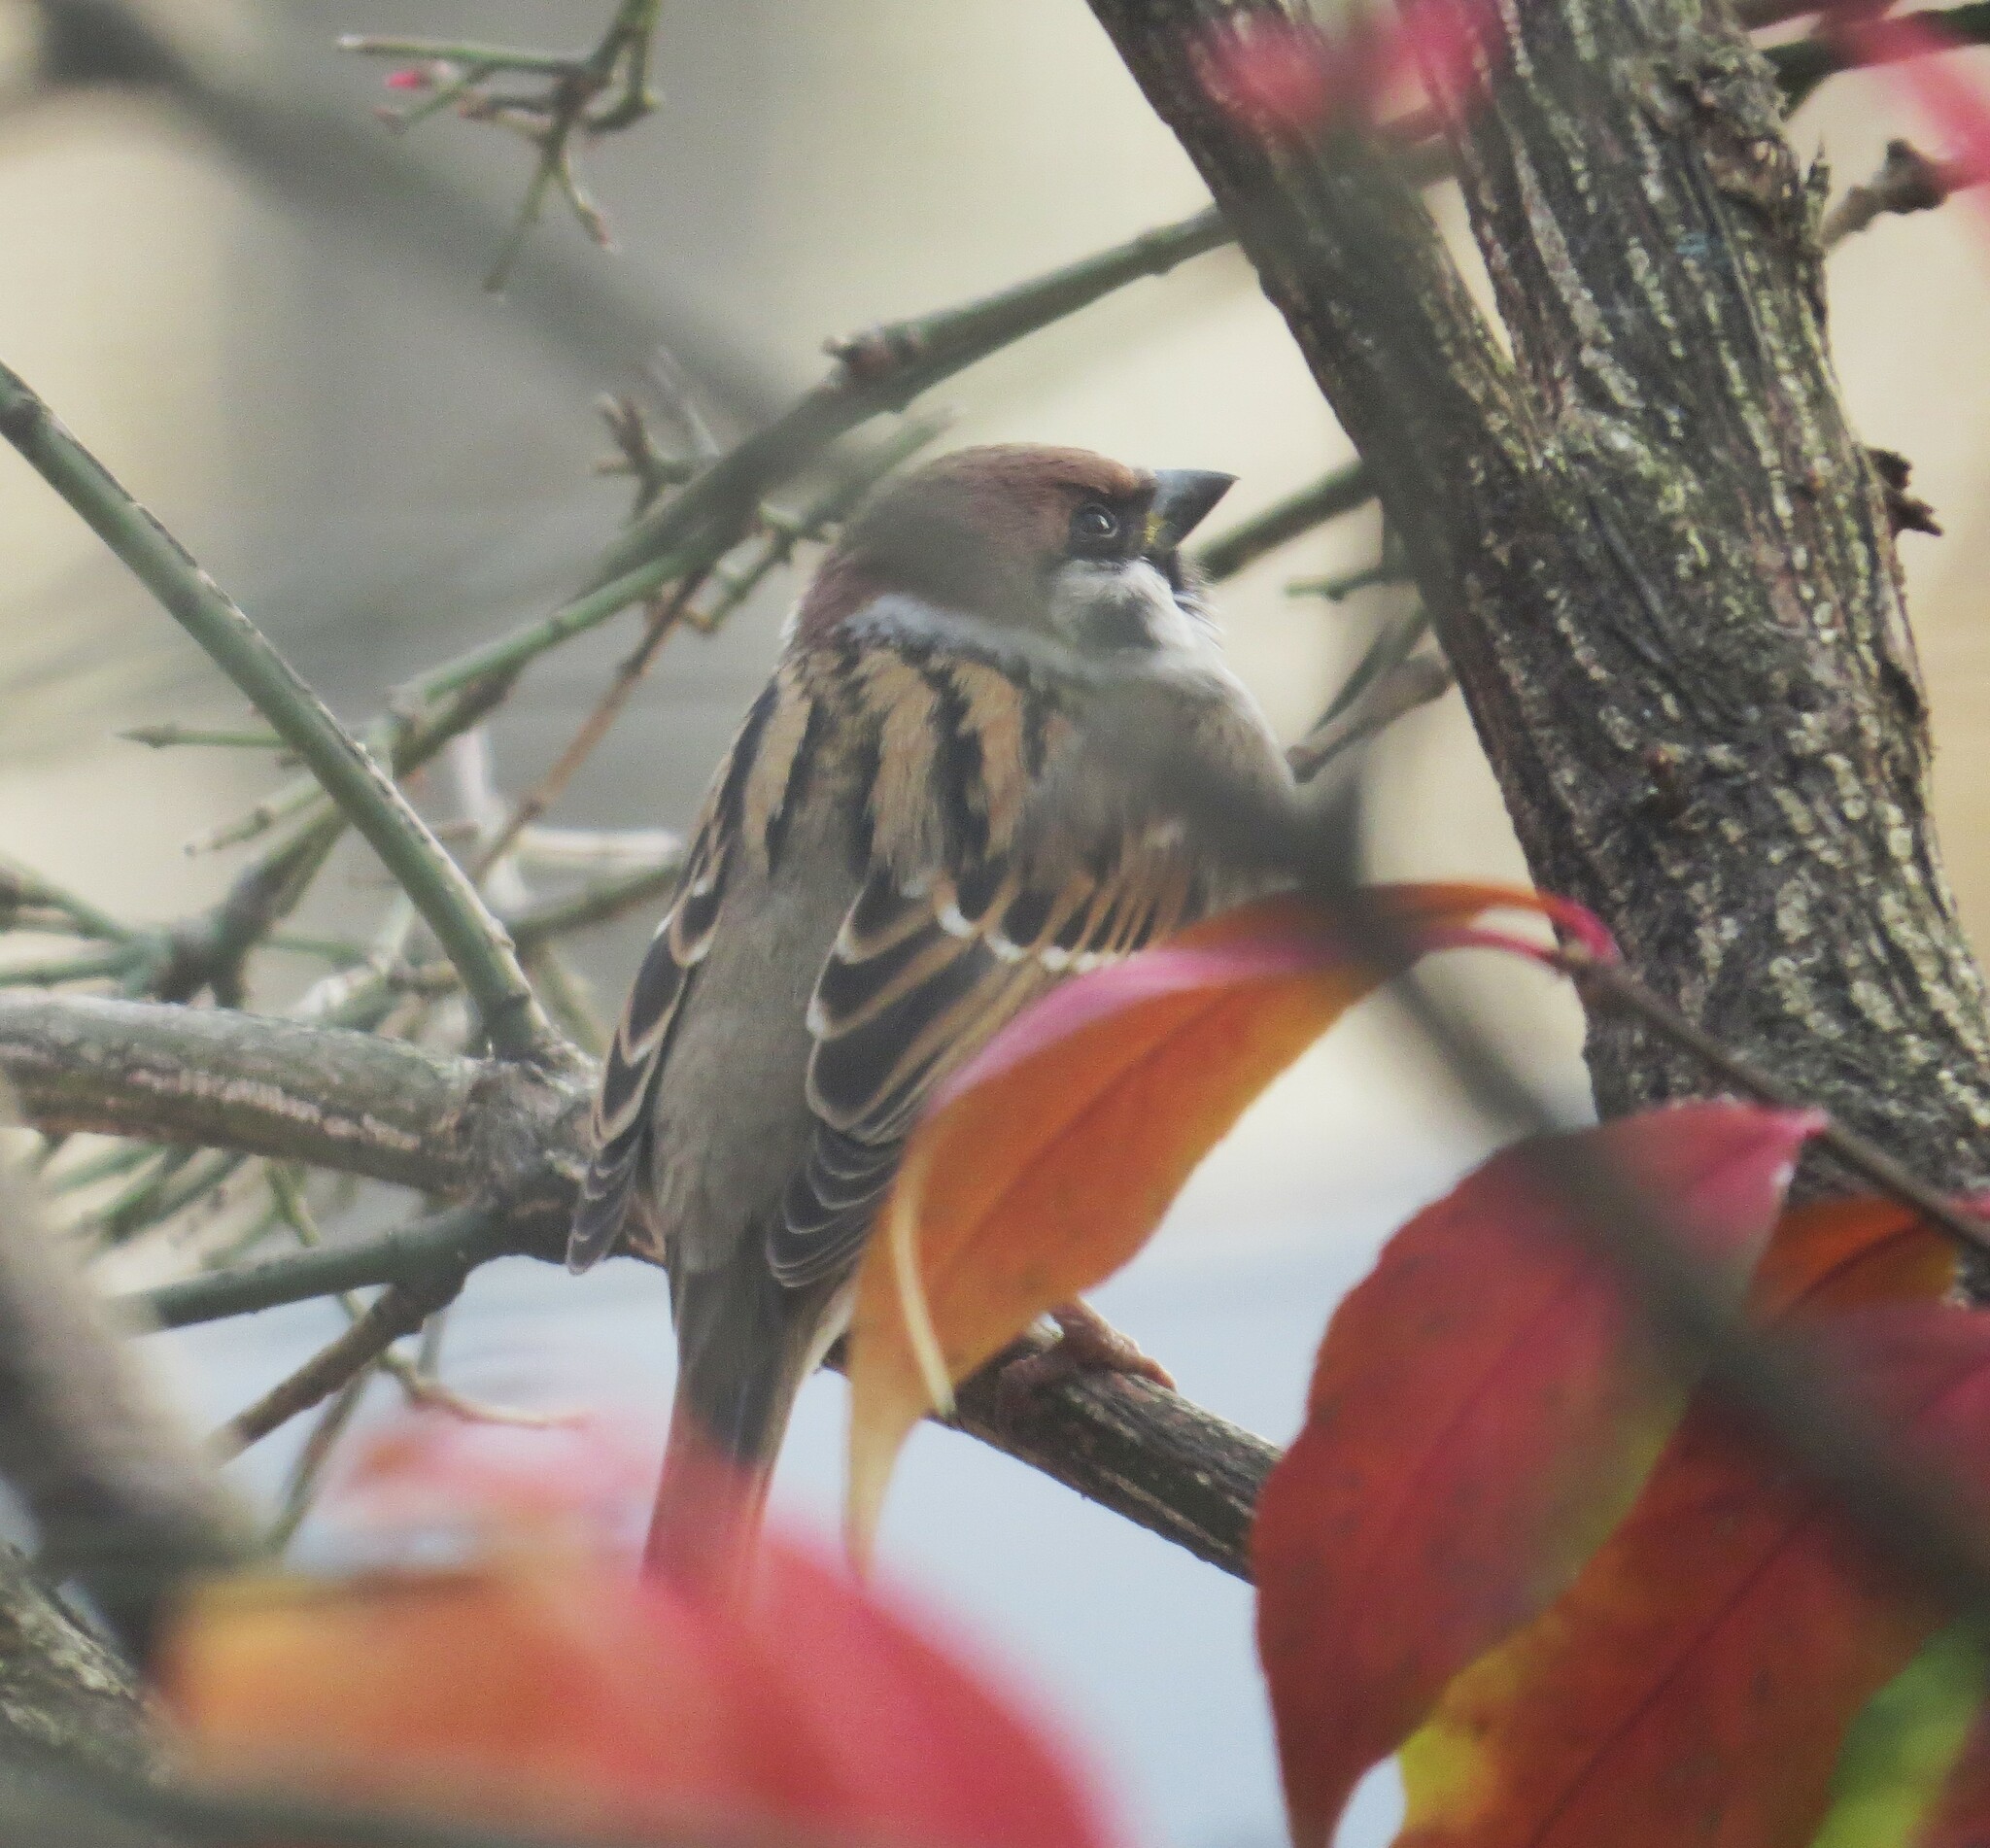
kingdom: Animalia
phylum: Chordata
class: Aves
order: Passeriformes
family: Passeridae
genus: Passer
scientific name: Passer montanus
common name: Eurasian tree sparrow
